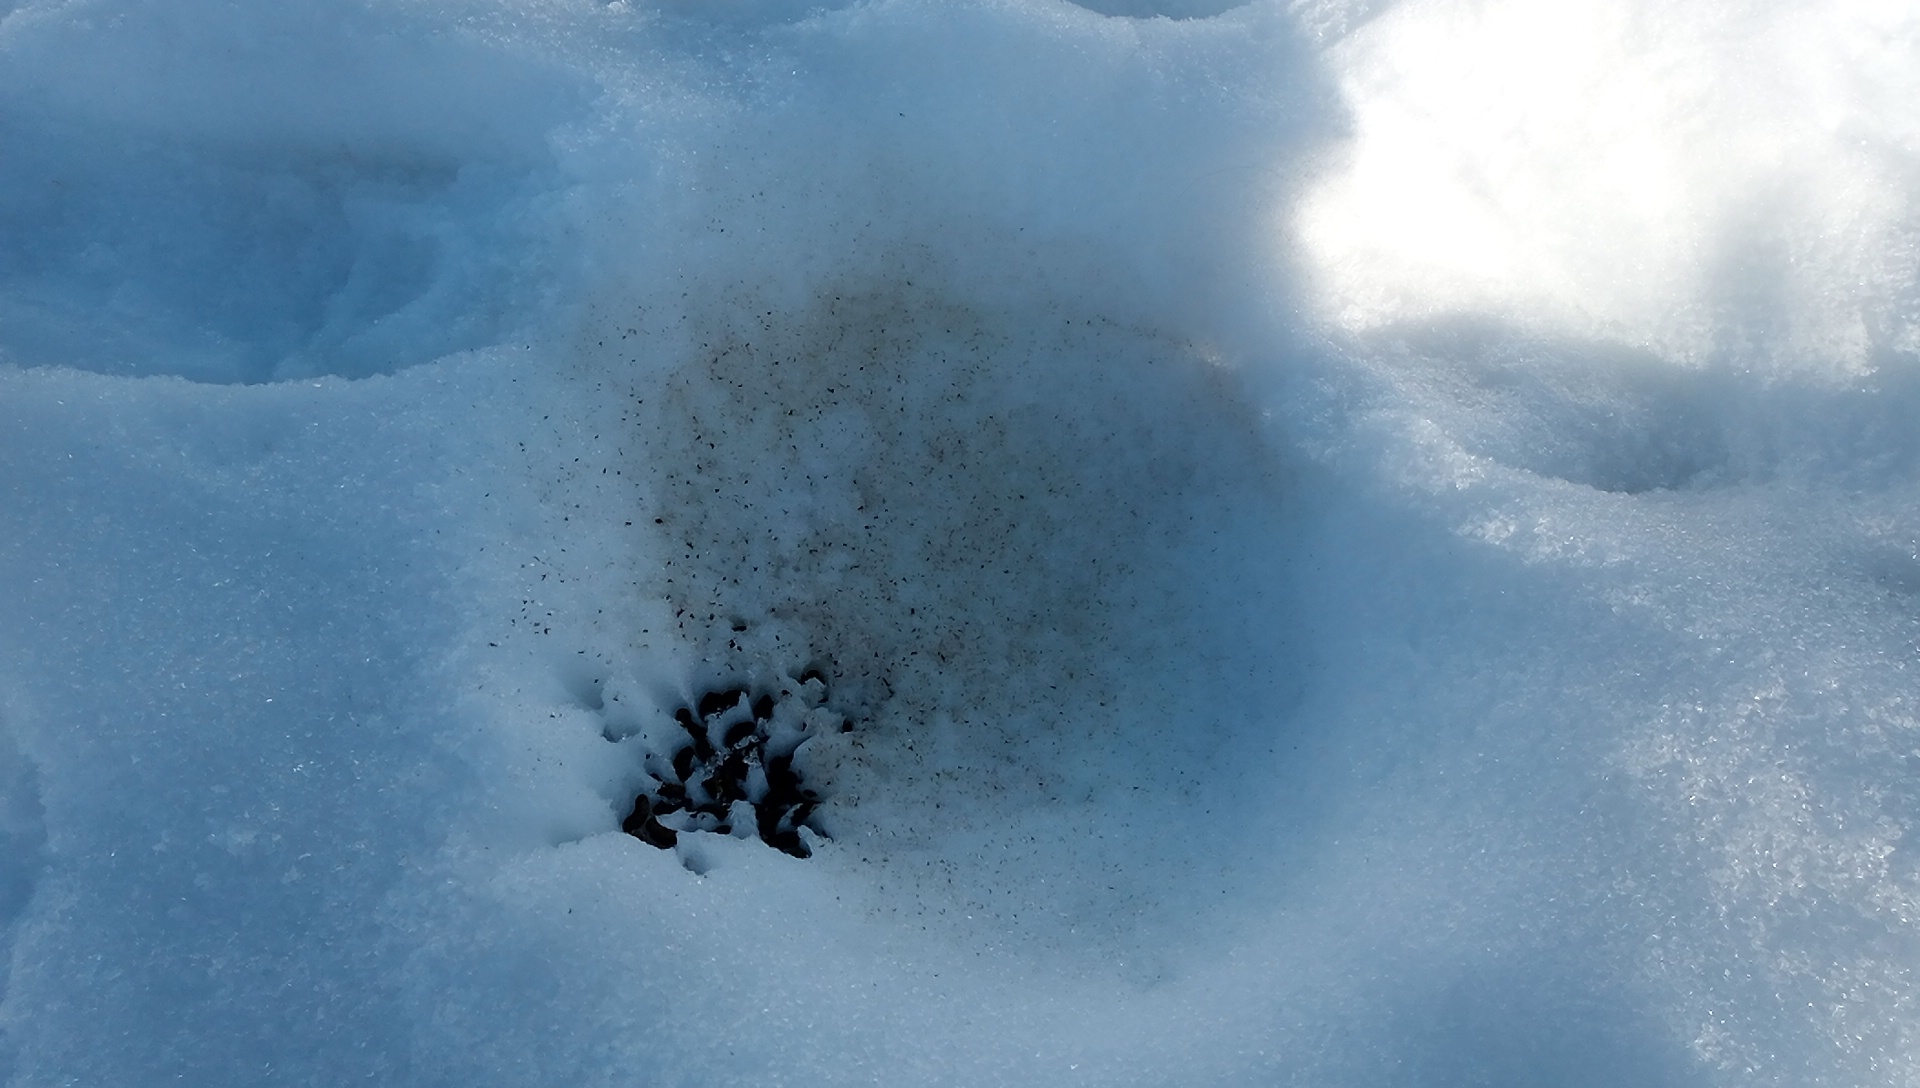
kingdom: Animalia
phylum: Chordata
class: Aves
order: Galliformes
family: Phasianidae
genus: Lagopus
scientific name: Lagopus muta
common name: Rock ptarmigan
